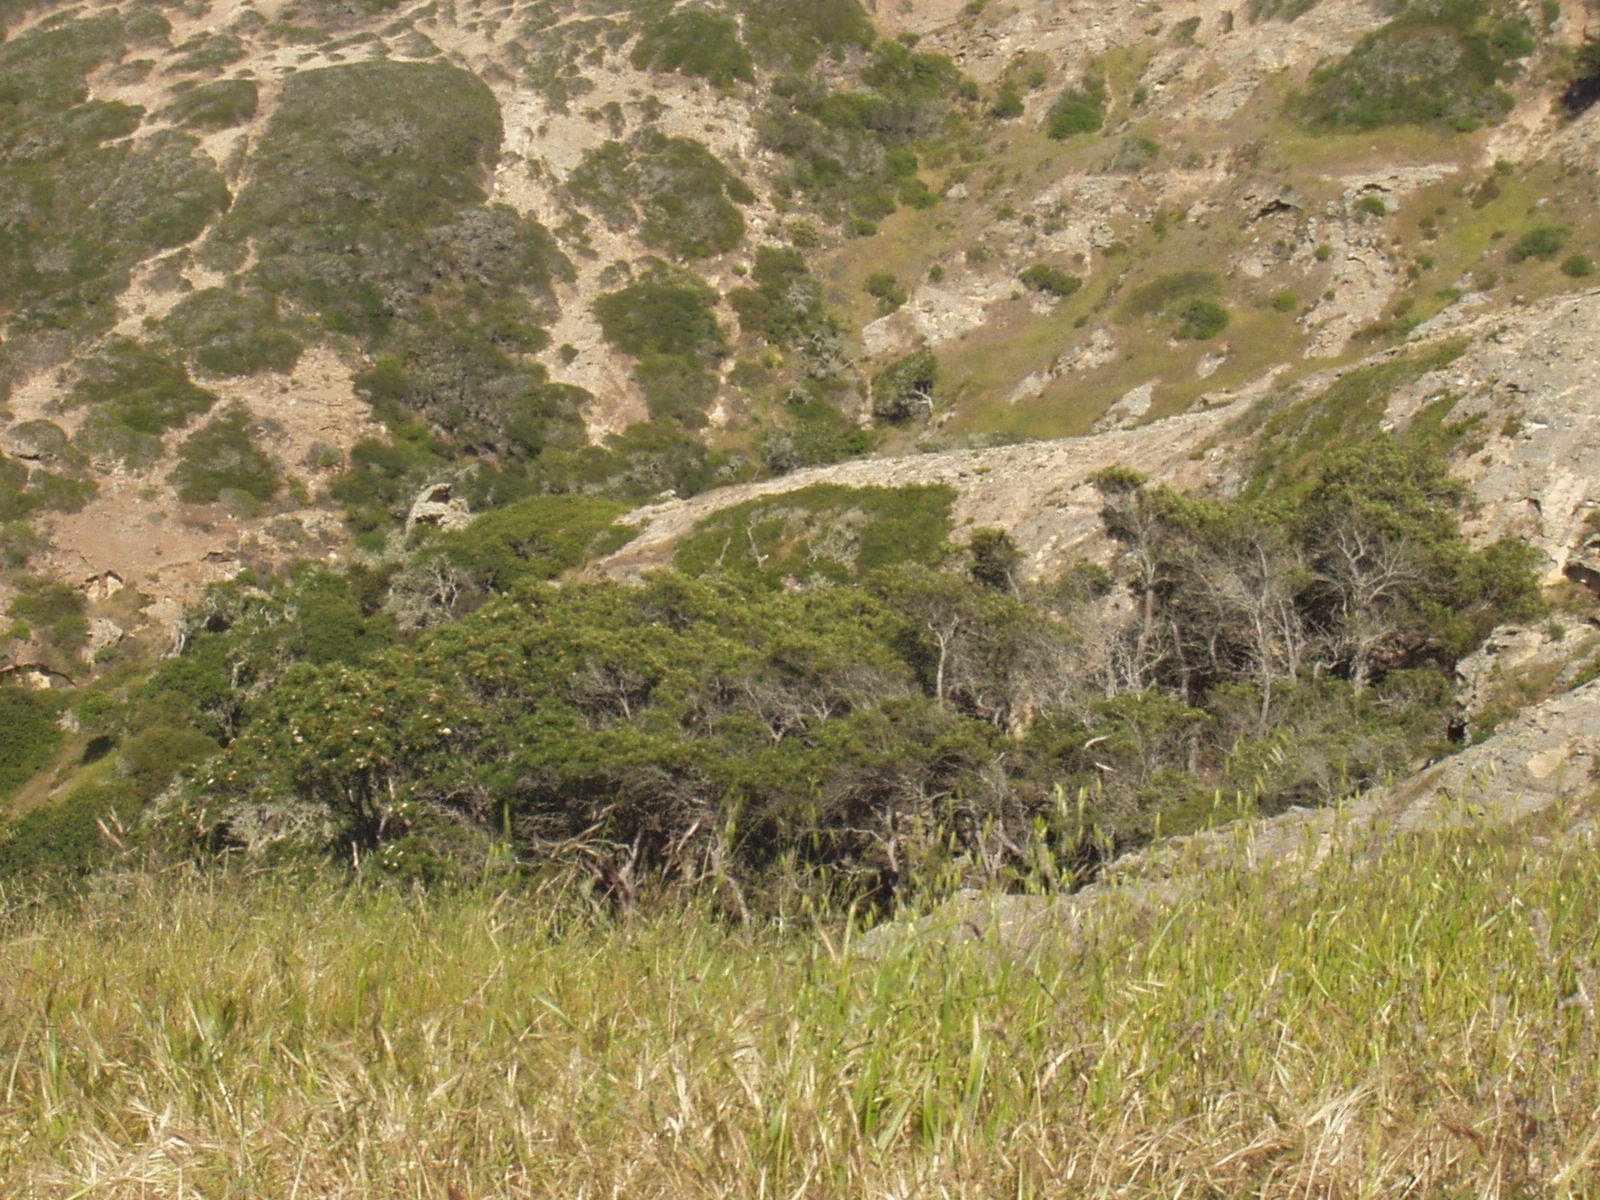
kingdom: Plantae
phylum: Tracheophyta
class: Magnoliopsida
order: Rosales
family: Rosaceae
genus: Lyonothamnus
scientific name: Lyonothamnus floribundus
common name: Catalina ironwood
